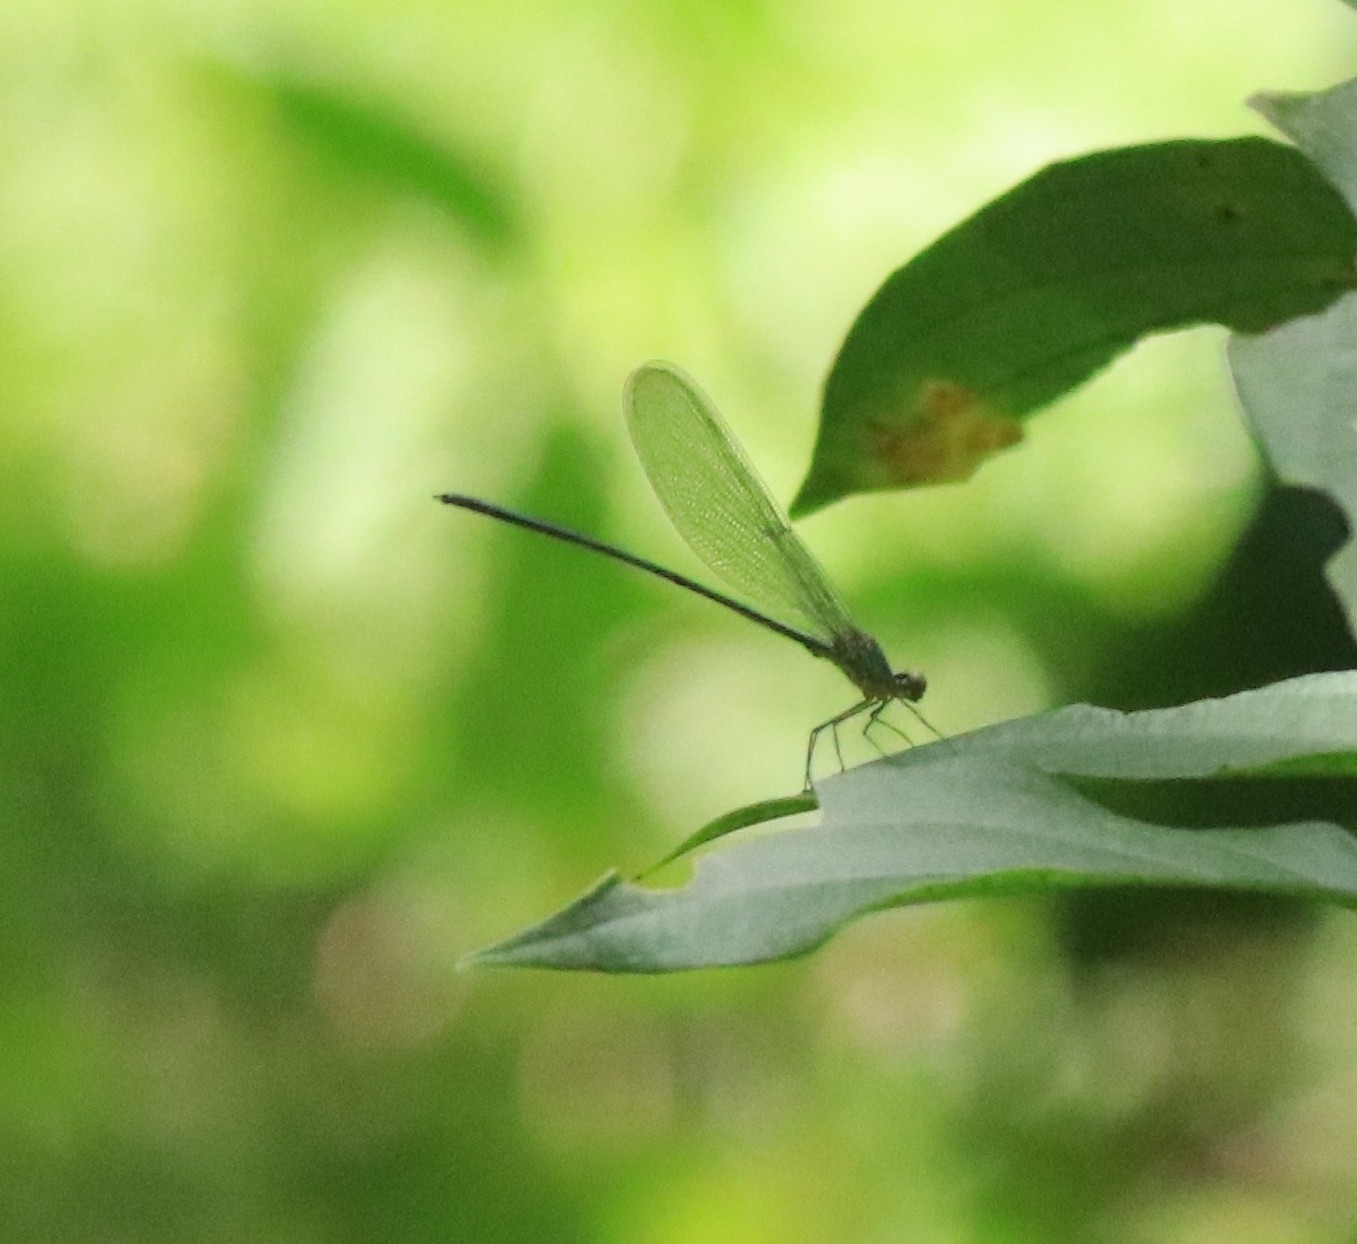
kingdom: Animalia
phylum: Arthropoda
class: Insecta
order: Odonata
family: Calopterygidae
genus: Vestalis
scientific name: Vestalis gracilis
